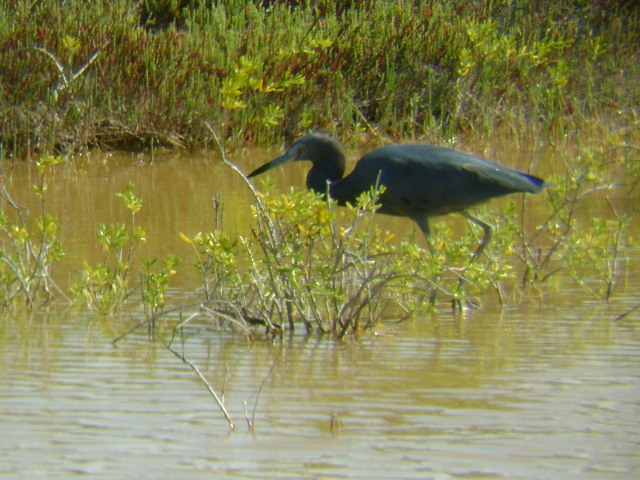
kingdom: Animalia
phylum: Chordata
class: Aves
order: Pelecaniformes
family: Ardeidae
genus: Egretta
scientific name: Egretta caerulea
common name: Little blue heron
